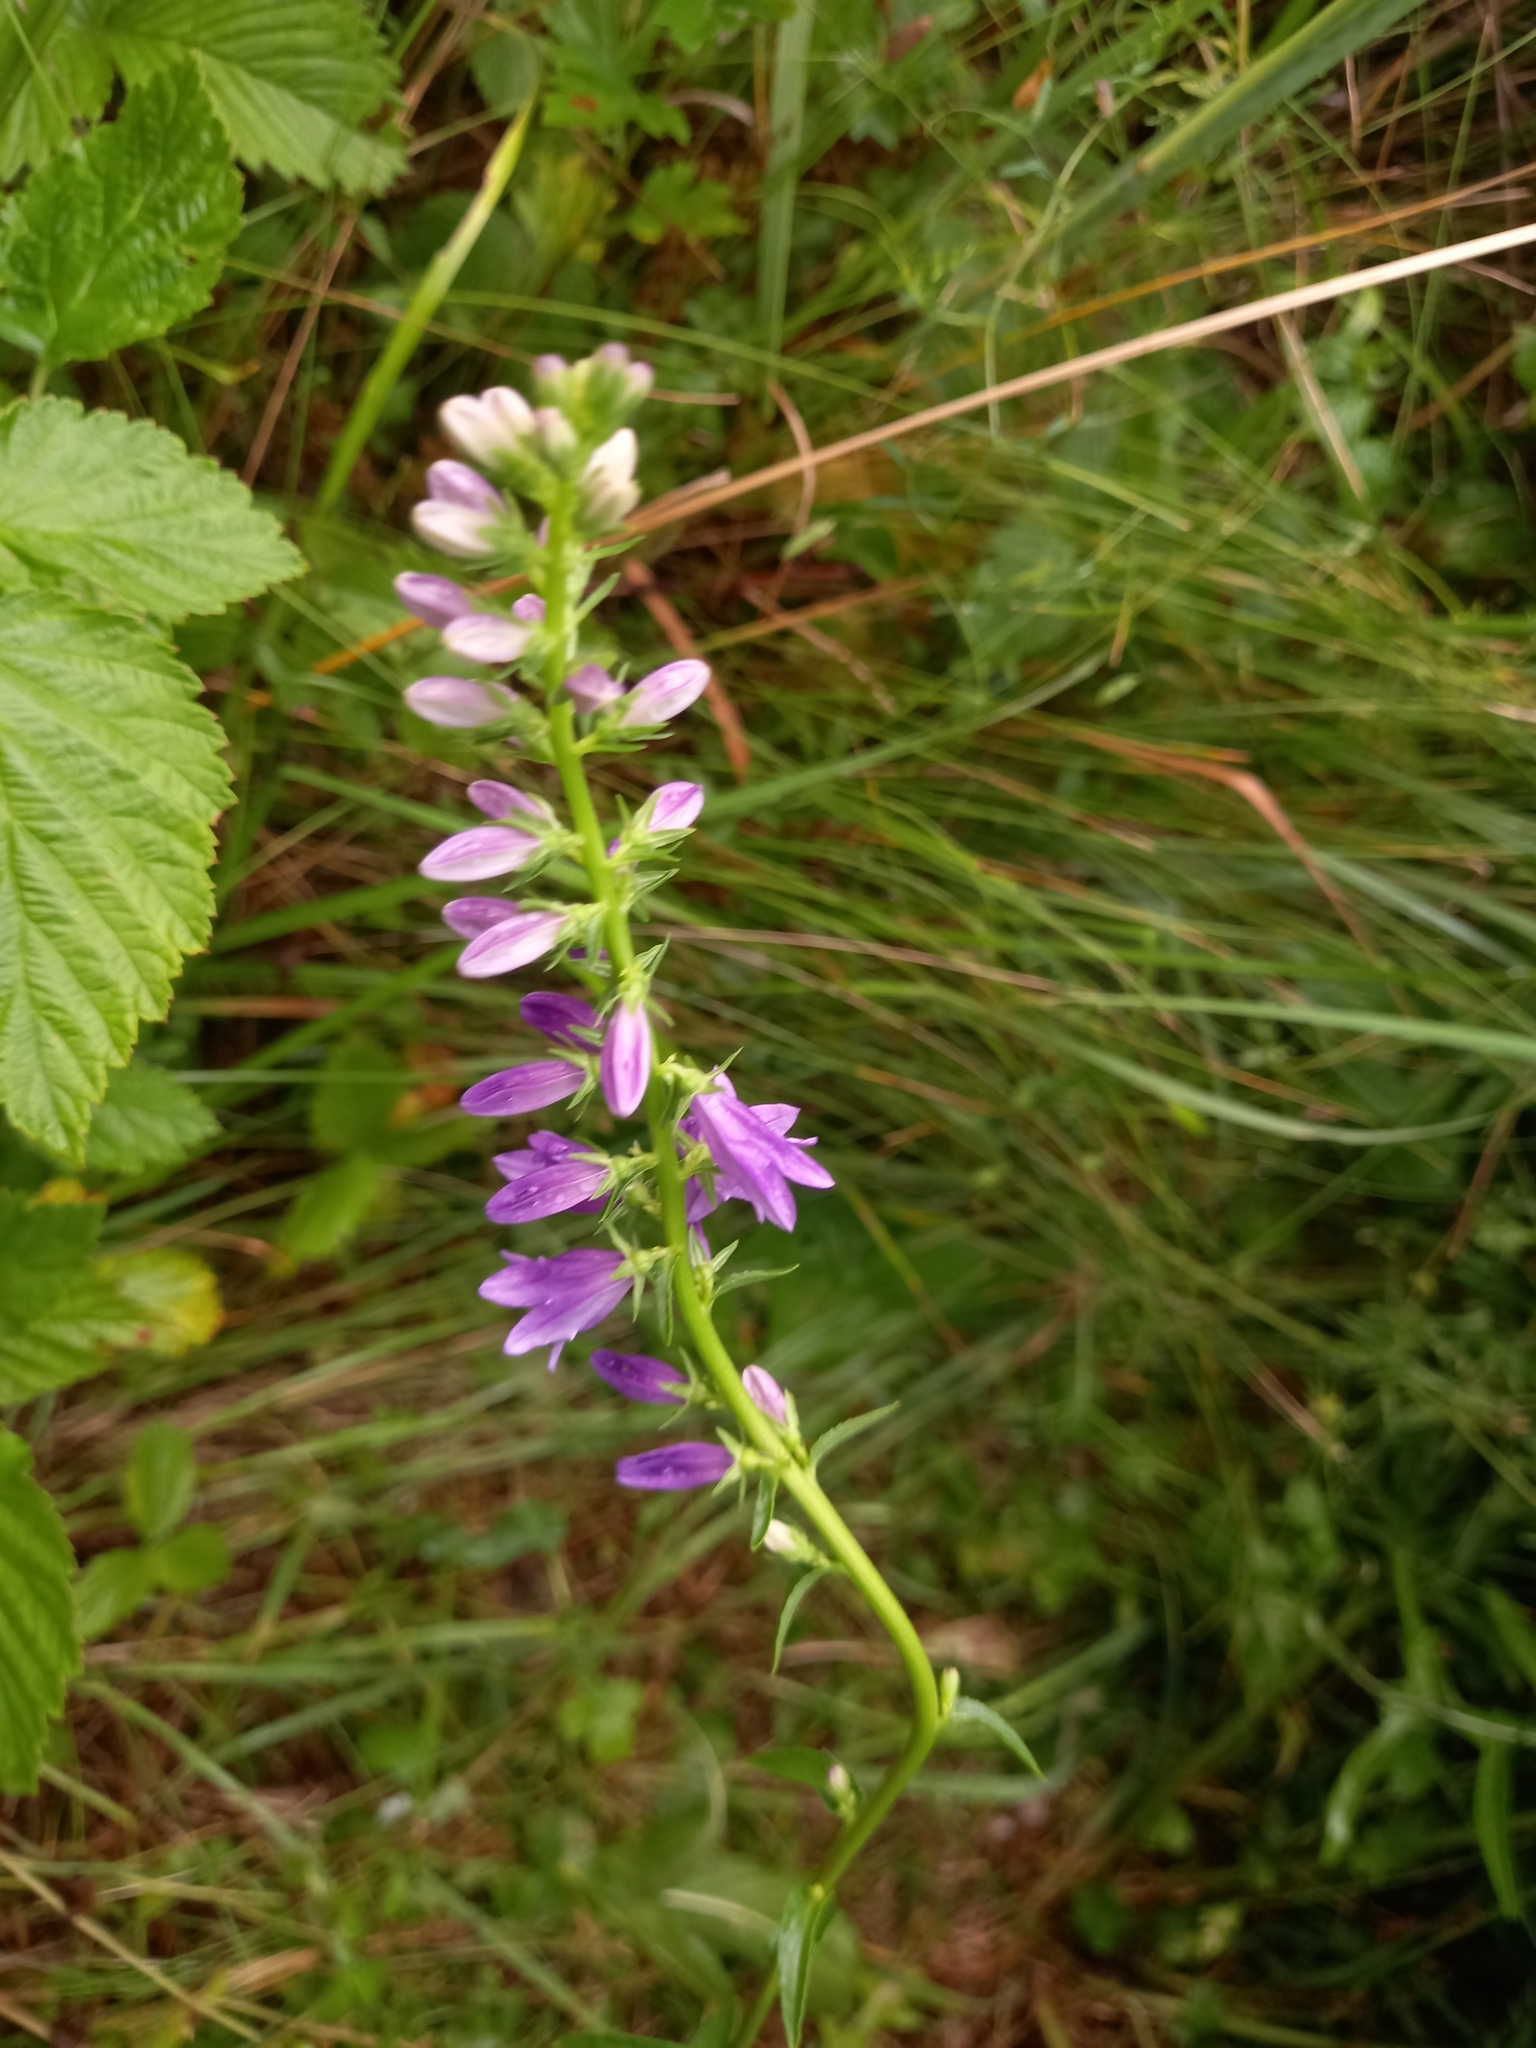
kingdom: Plantae
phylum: Tracheophyta
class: Magnoliopsida
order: Asterales
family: Campanulaceae
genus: Campanula
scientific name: Campanula rapunculoides
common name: Creeping bellflower
